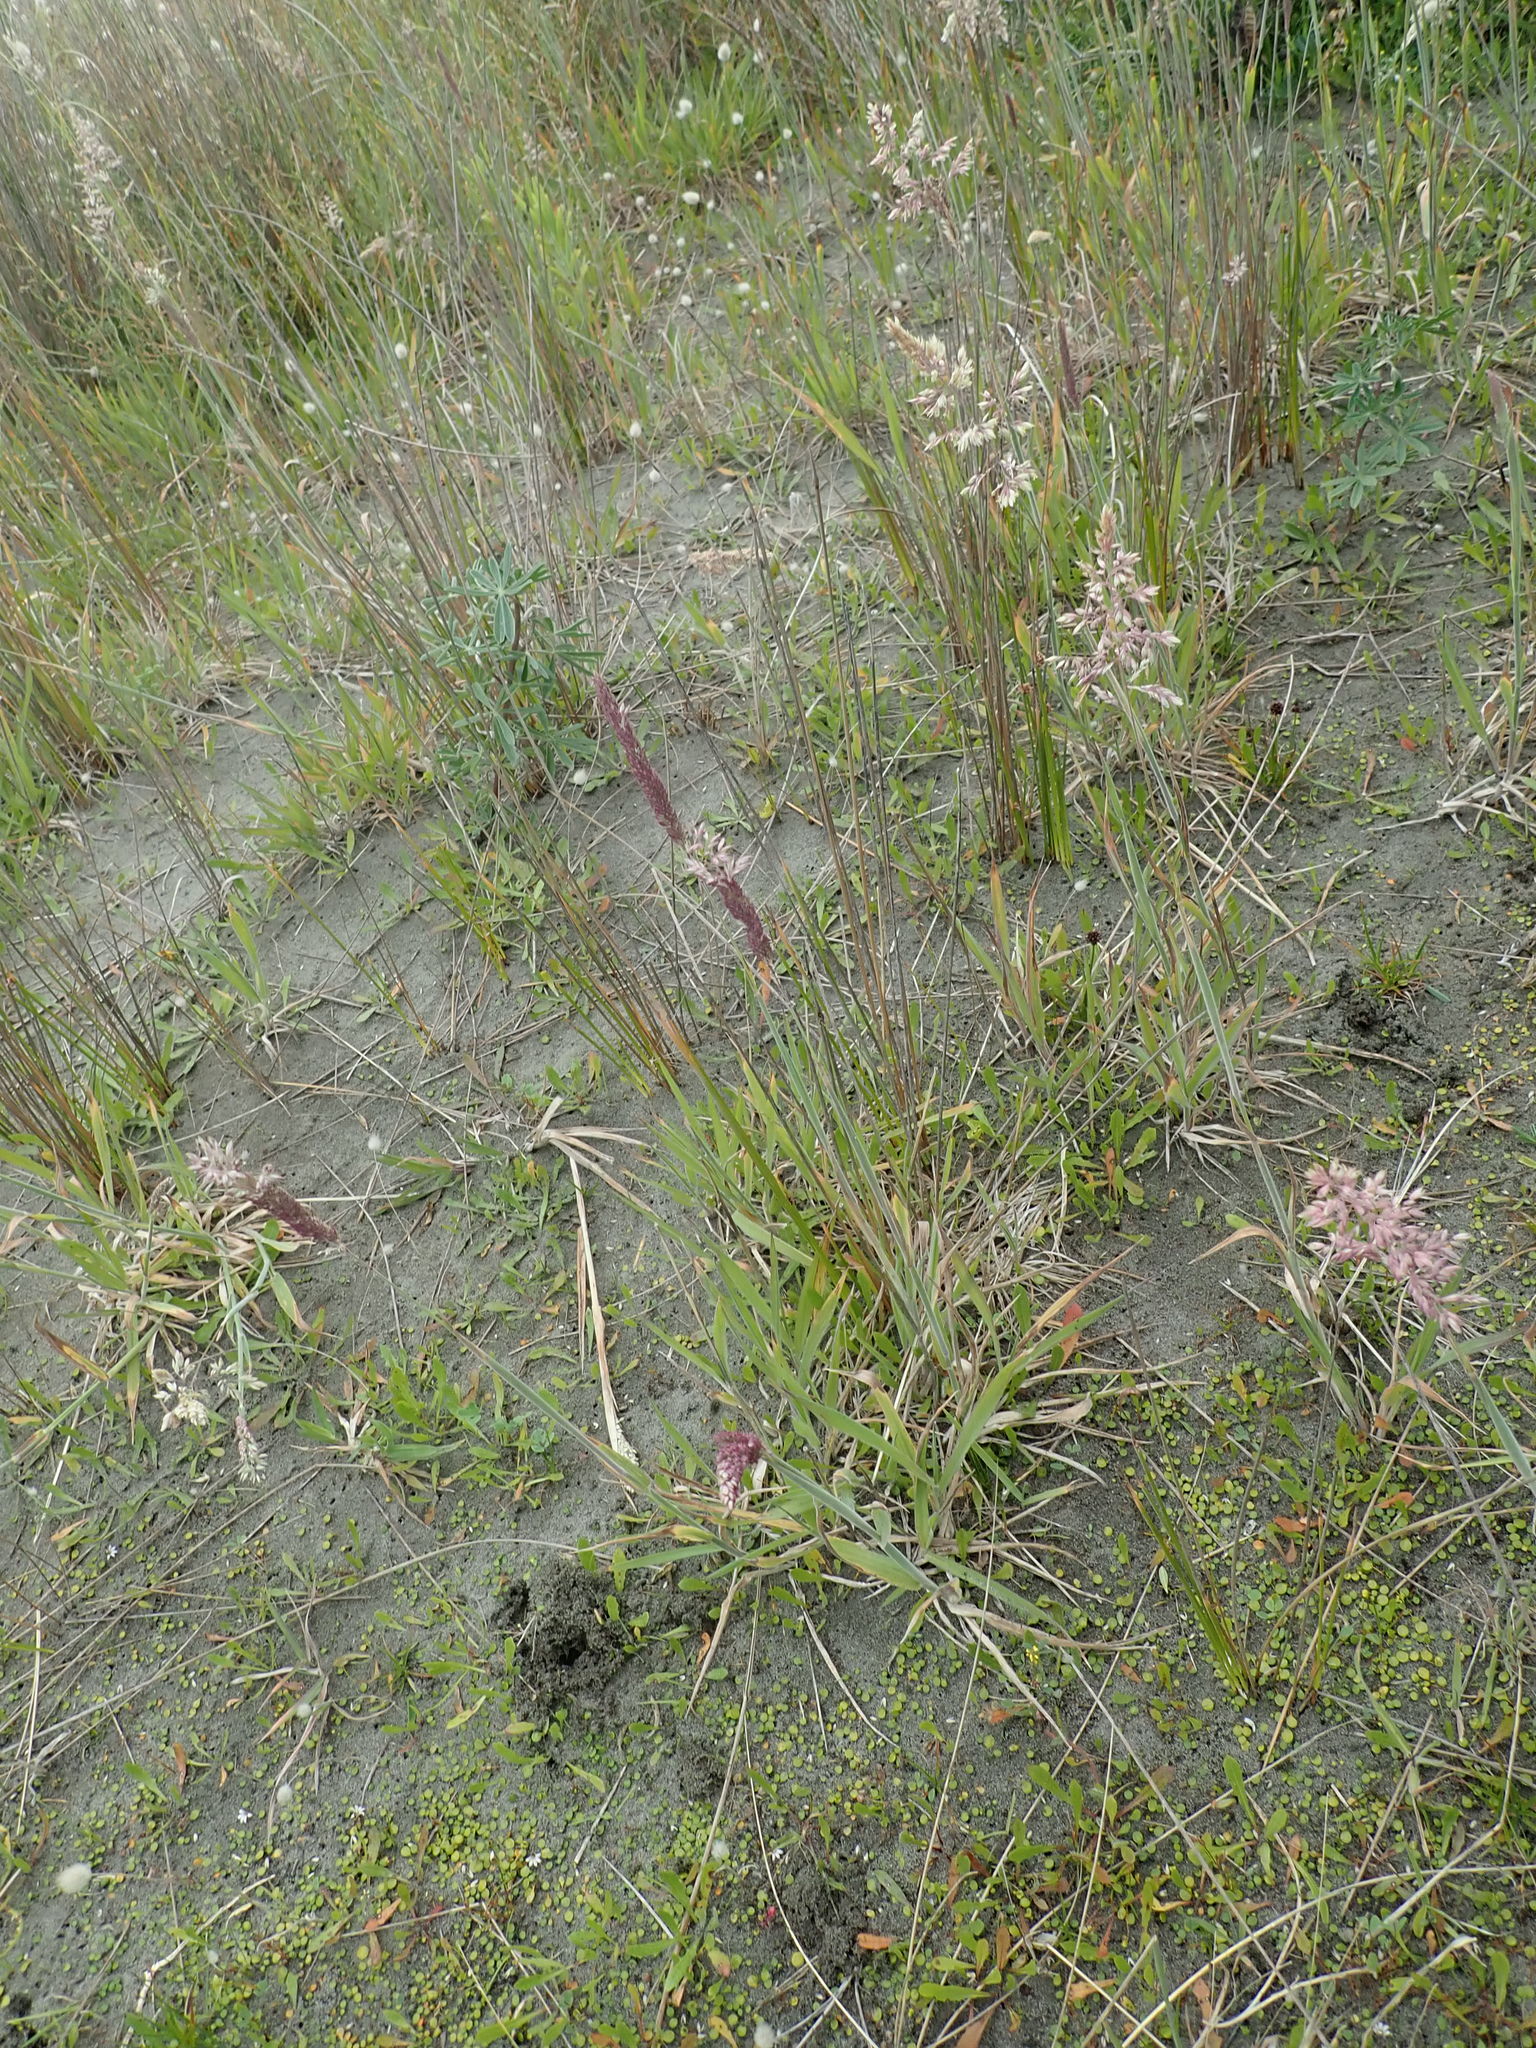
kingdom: Plantae
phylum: Tracheophyta
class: Liliopsida
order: Poales
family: Poaceae
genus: Holcus
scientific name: Holcus lanatus
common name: Yorkshire-fog
